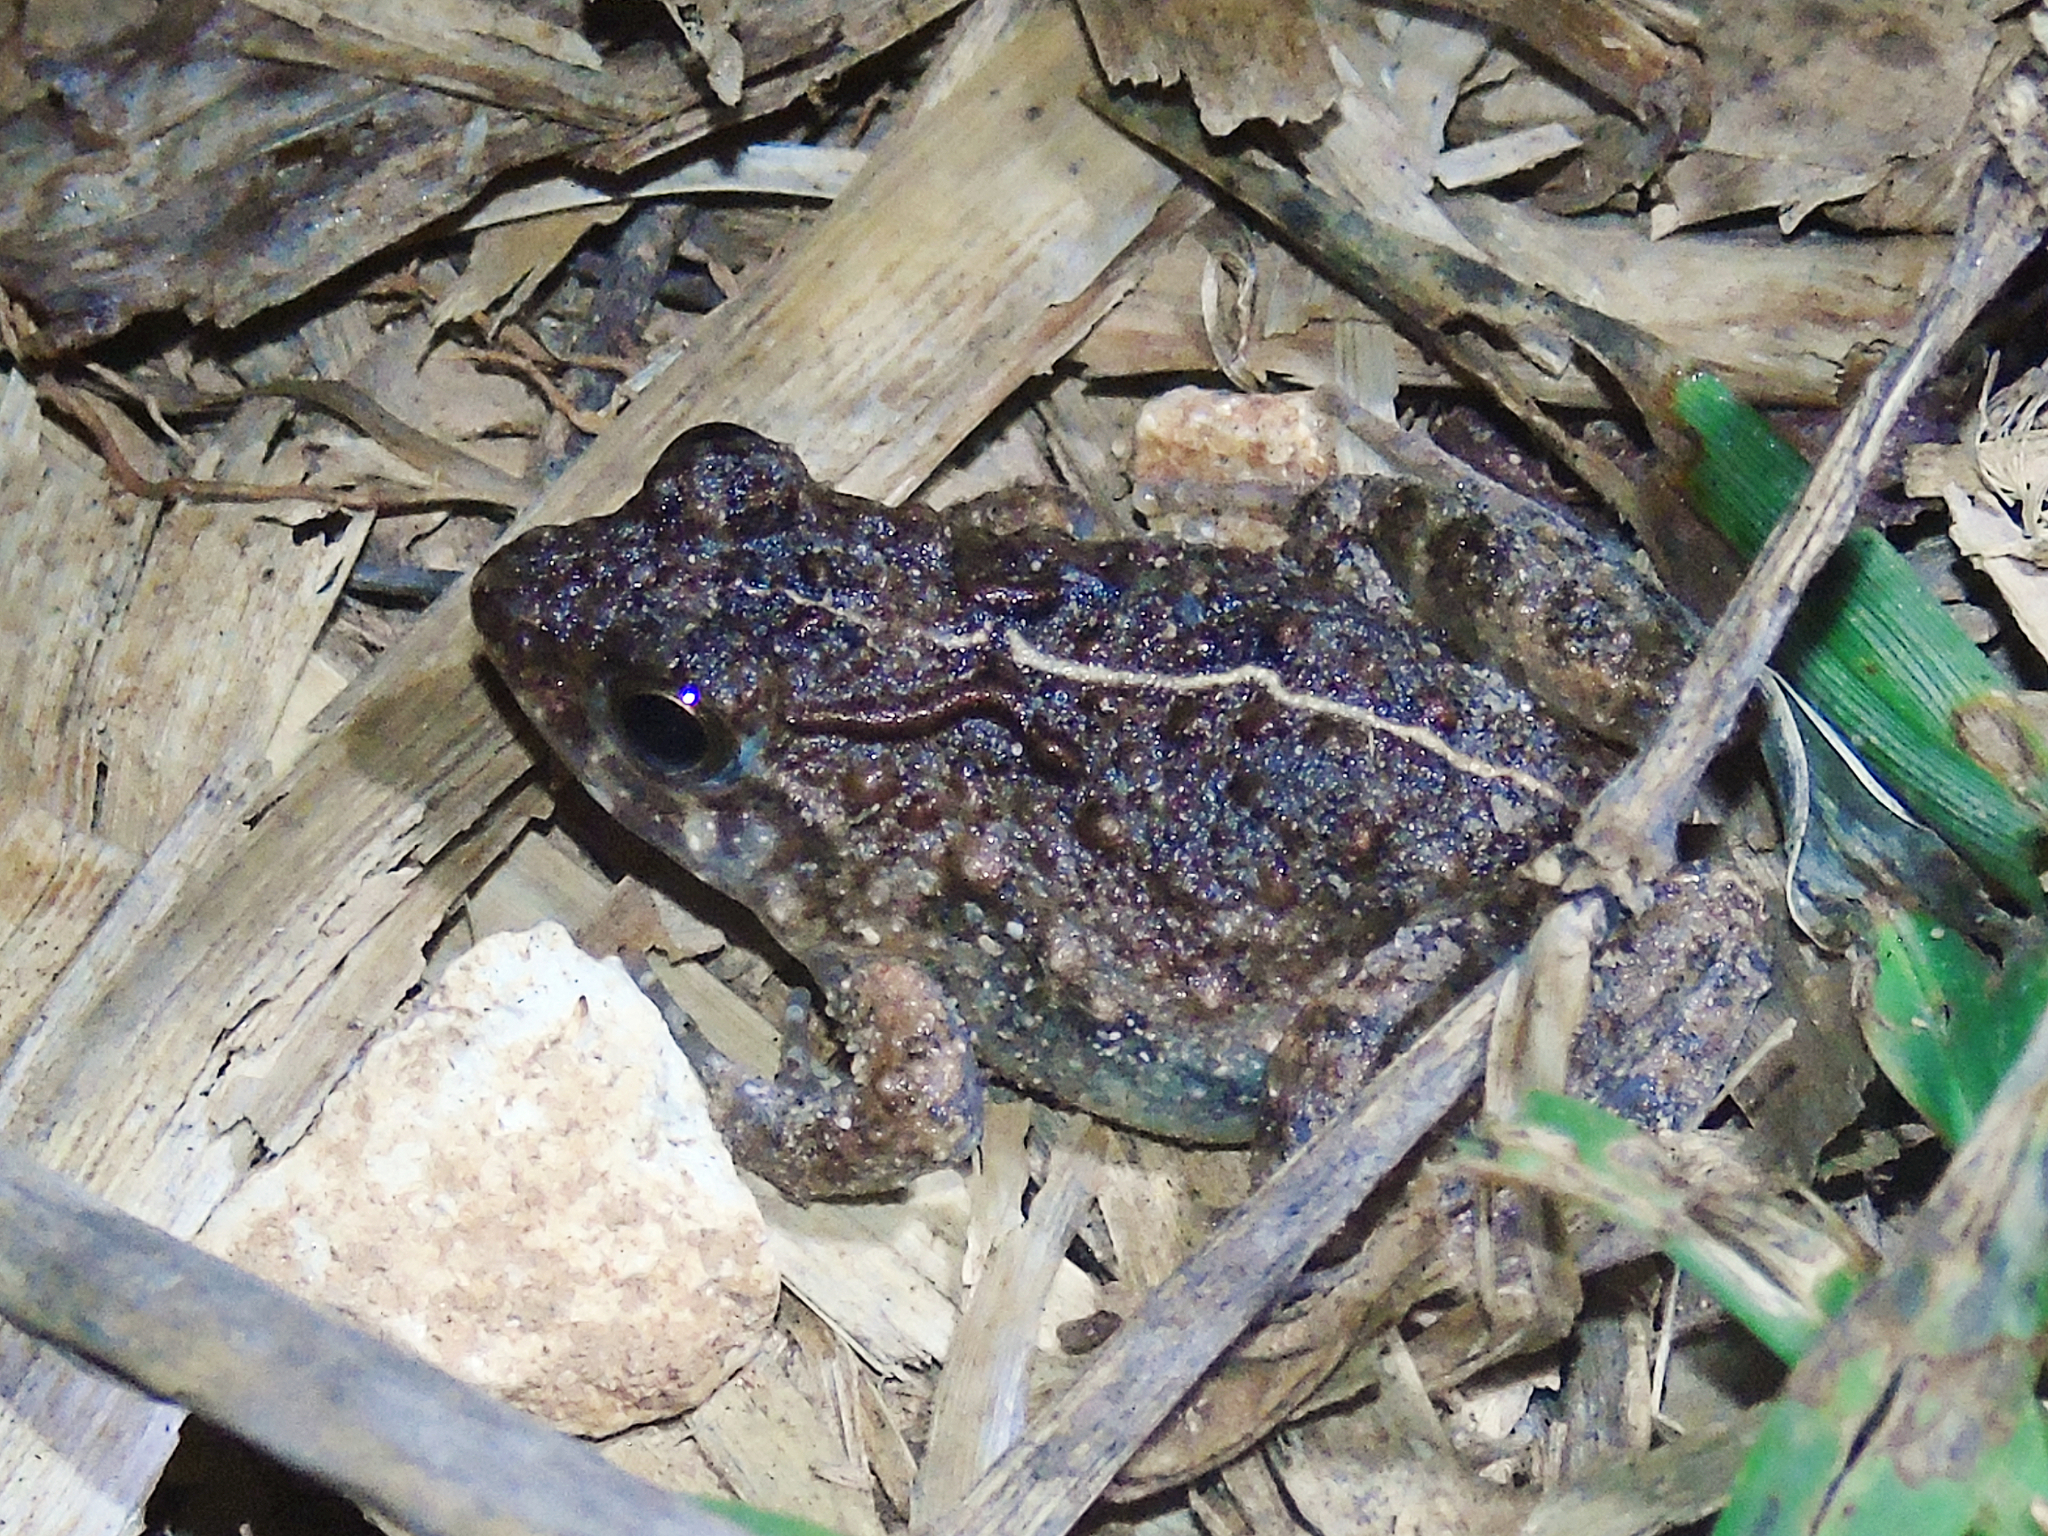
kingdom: Animalia
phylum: Chordata
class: Amphibia
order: Anura
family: Phrynobatrachidae
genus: Phrynobatrachus
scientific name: Phrynobatrachus acridoides
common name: East african puddle frog
